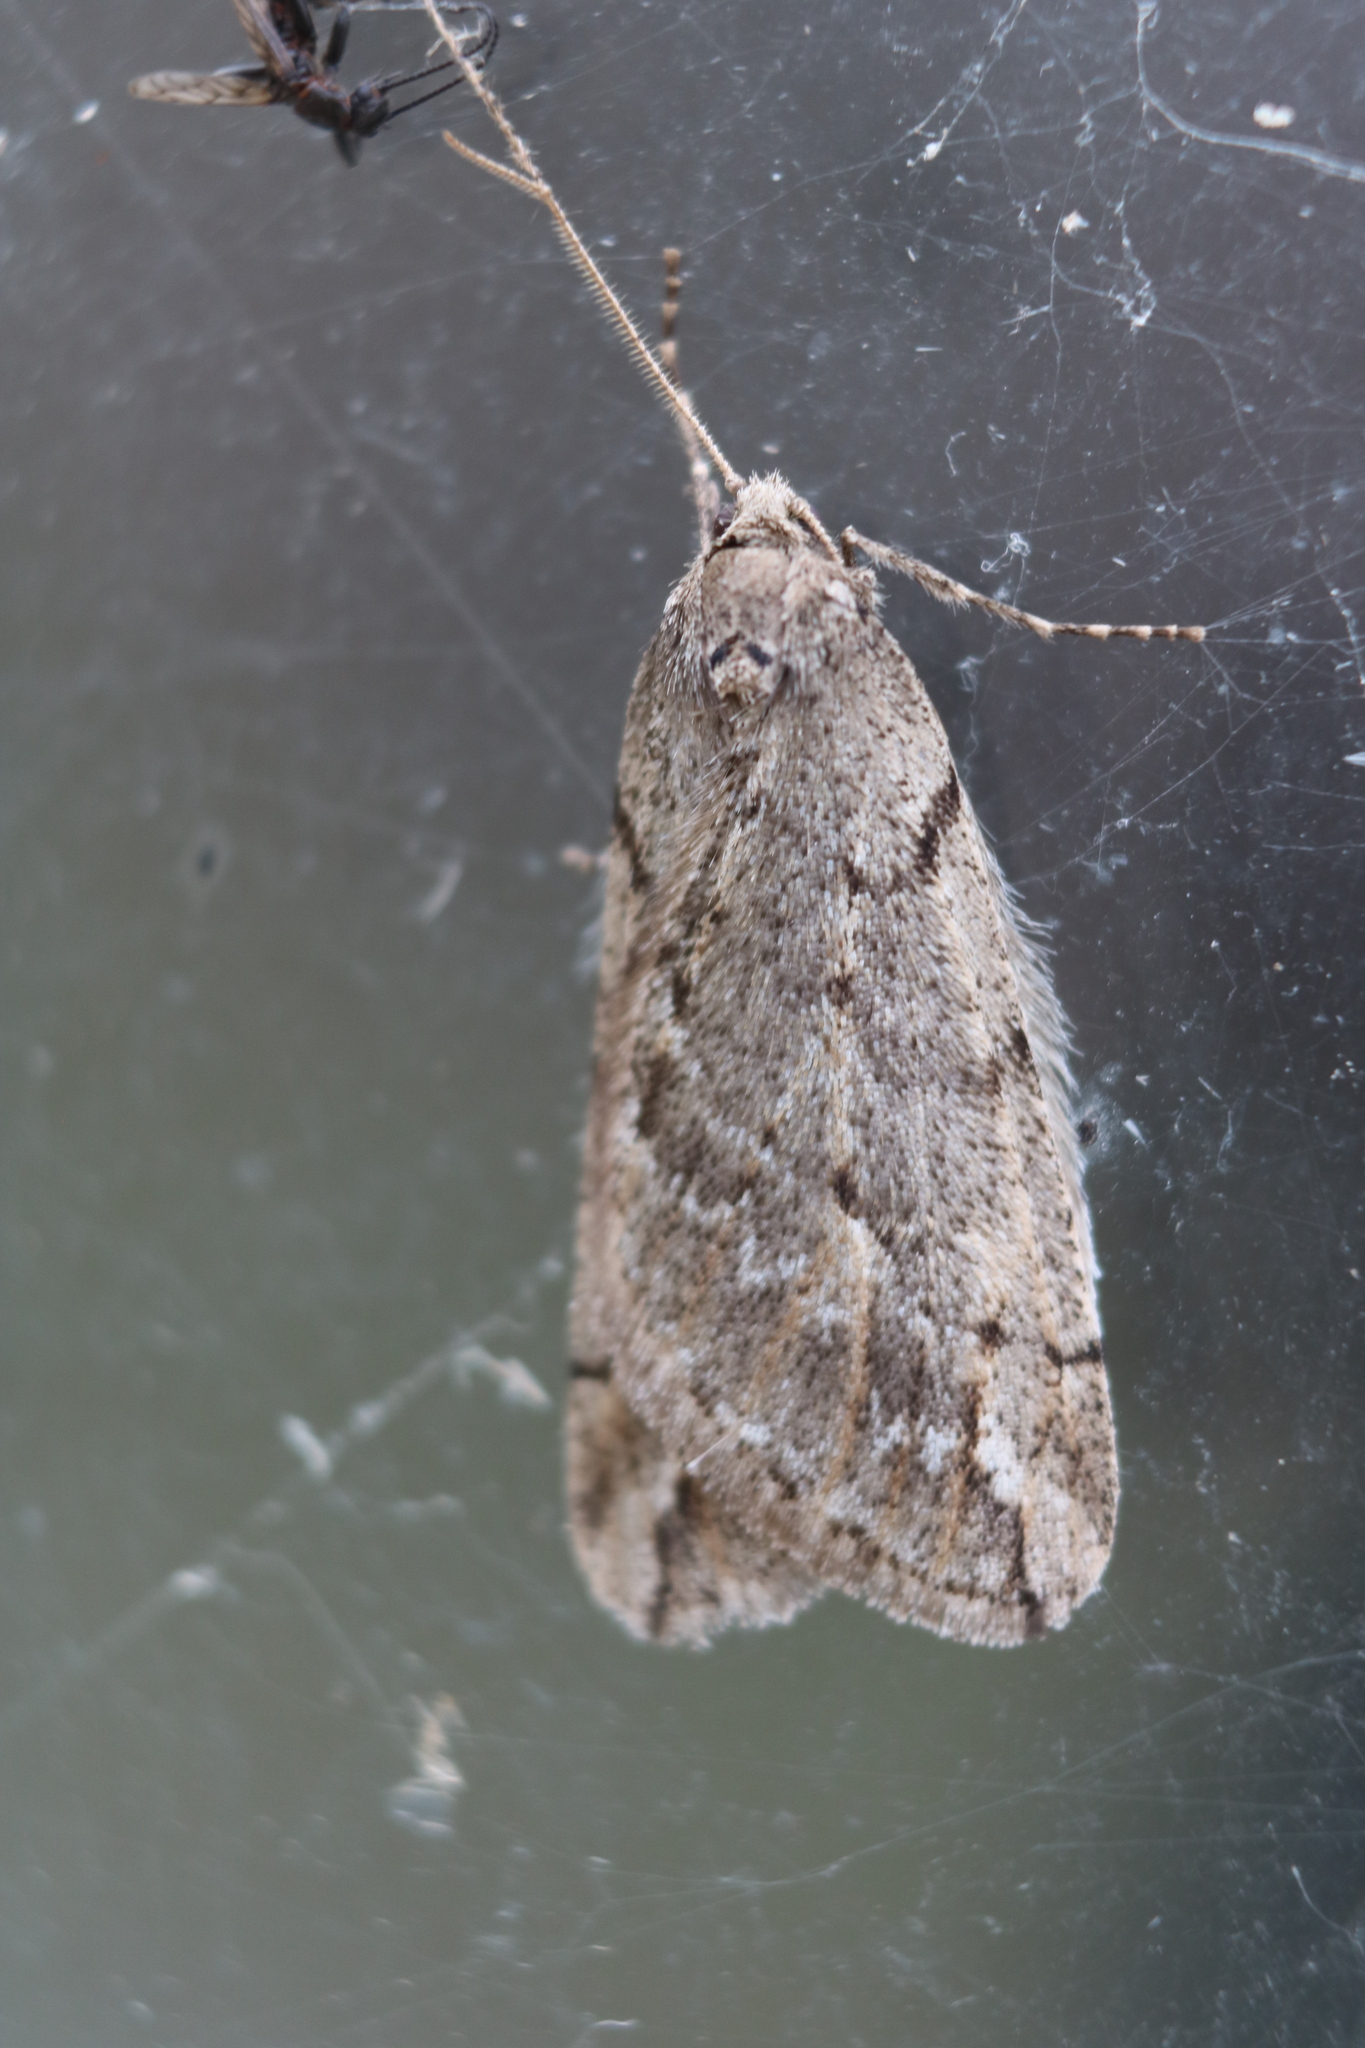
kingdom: Animalia
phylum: Arthropoda
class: Insecta
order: Lepidoptera
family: Geometridae
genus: Paleacrita
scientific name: Paleacrita vernata
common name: Spring cankerworm
